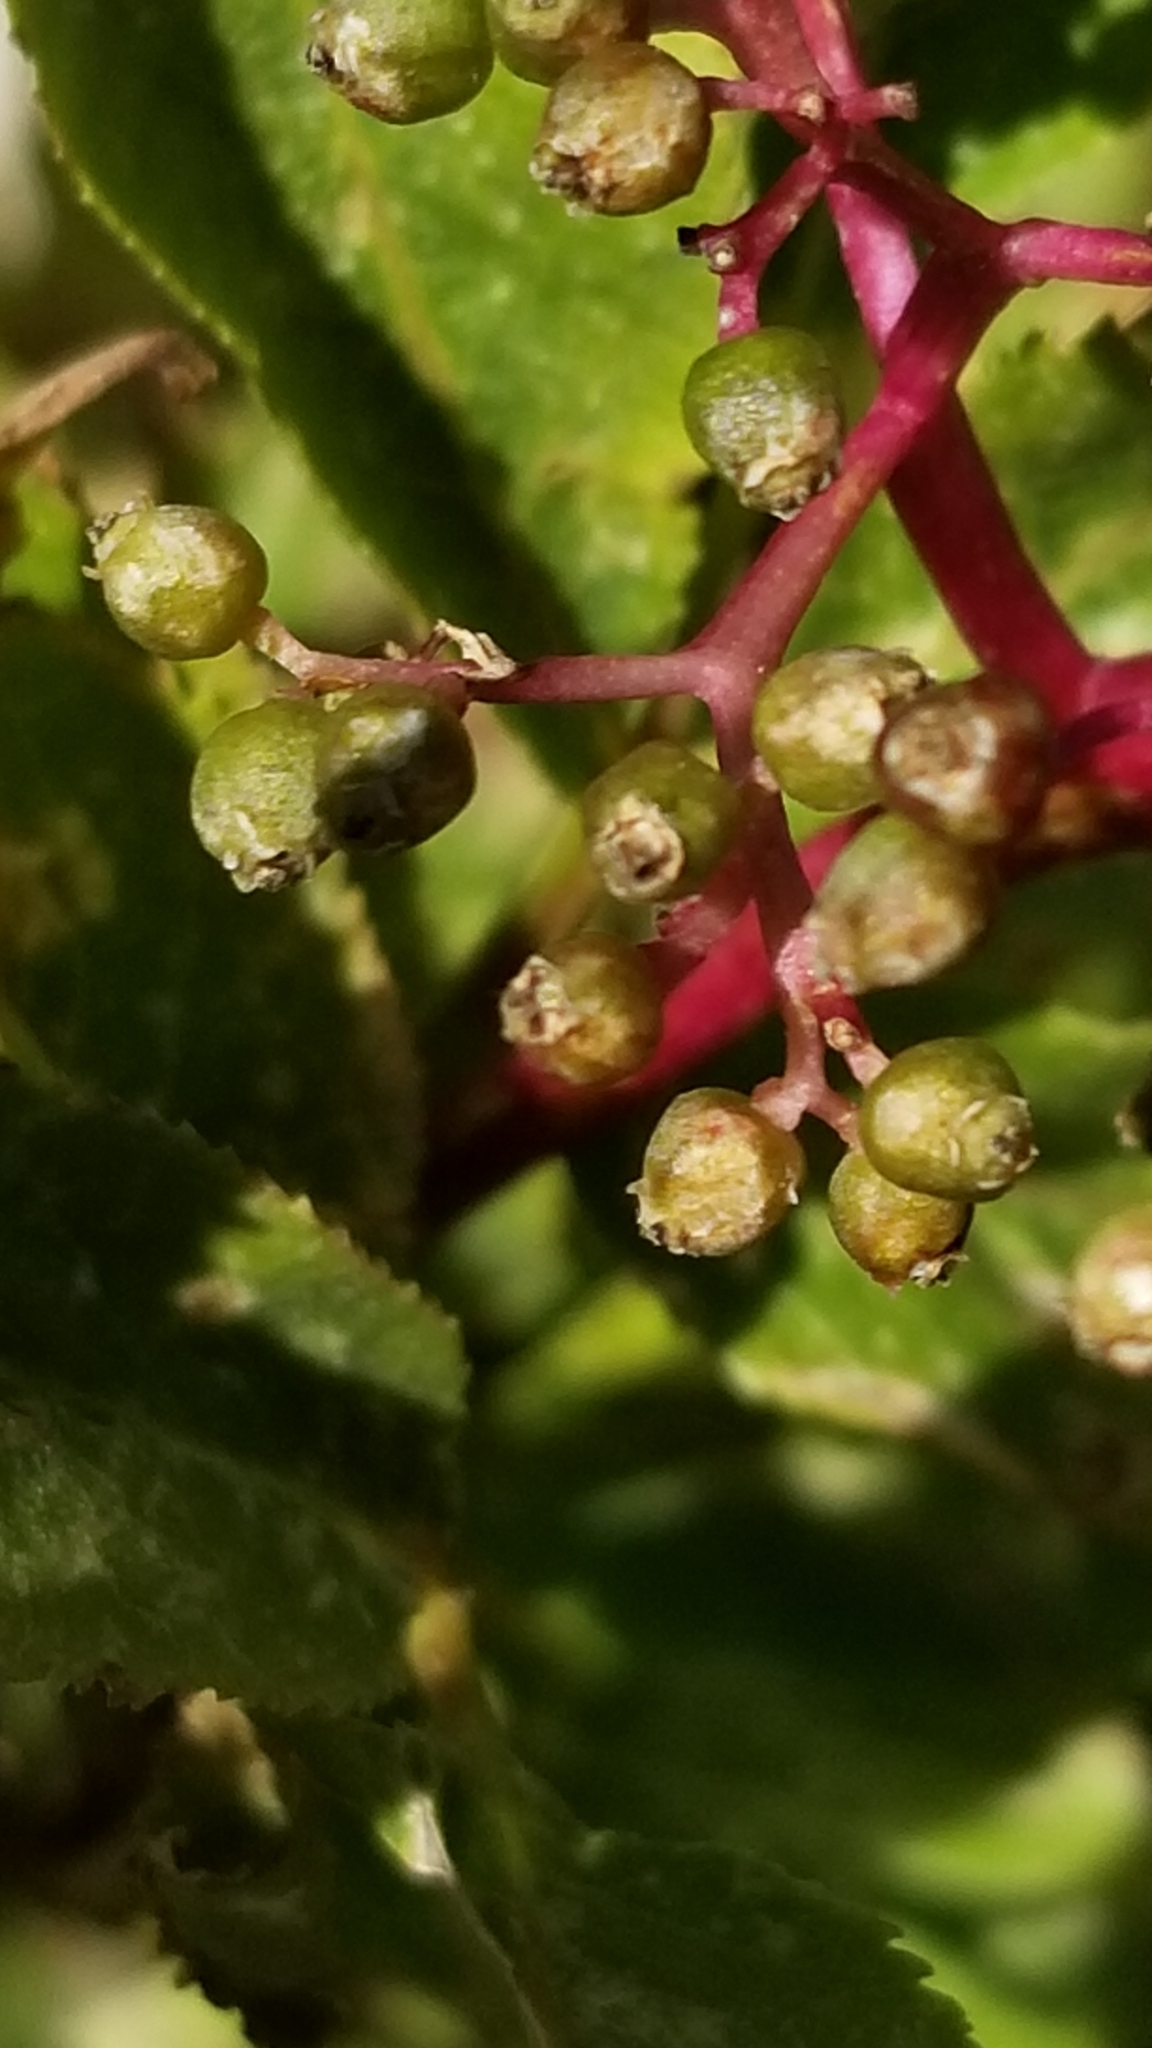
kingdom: Plantae
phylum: Tracheophyta
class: Magnoliopsida
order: Dipsacales
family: Viburnaceae
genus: Sambucus
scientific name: Sambucus racemosa
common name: Red-berried elder
